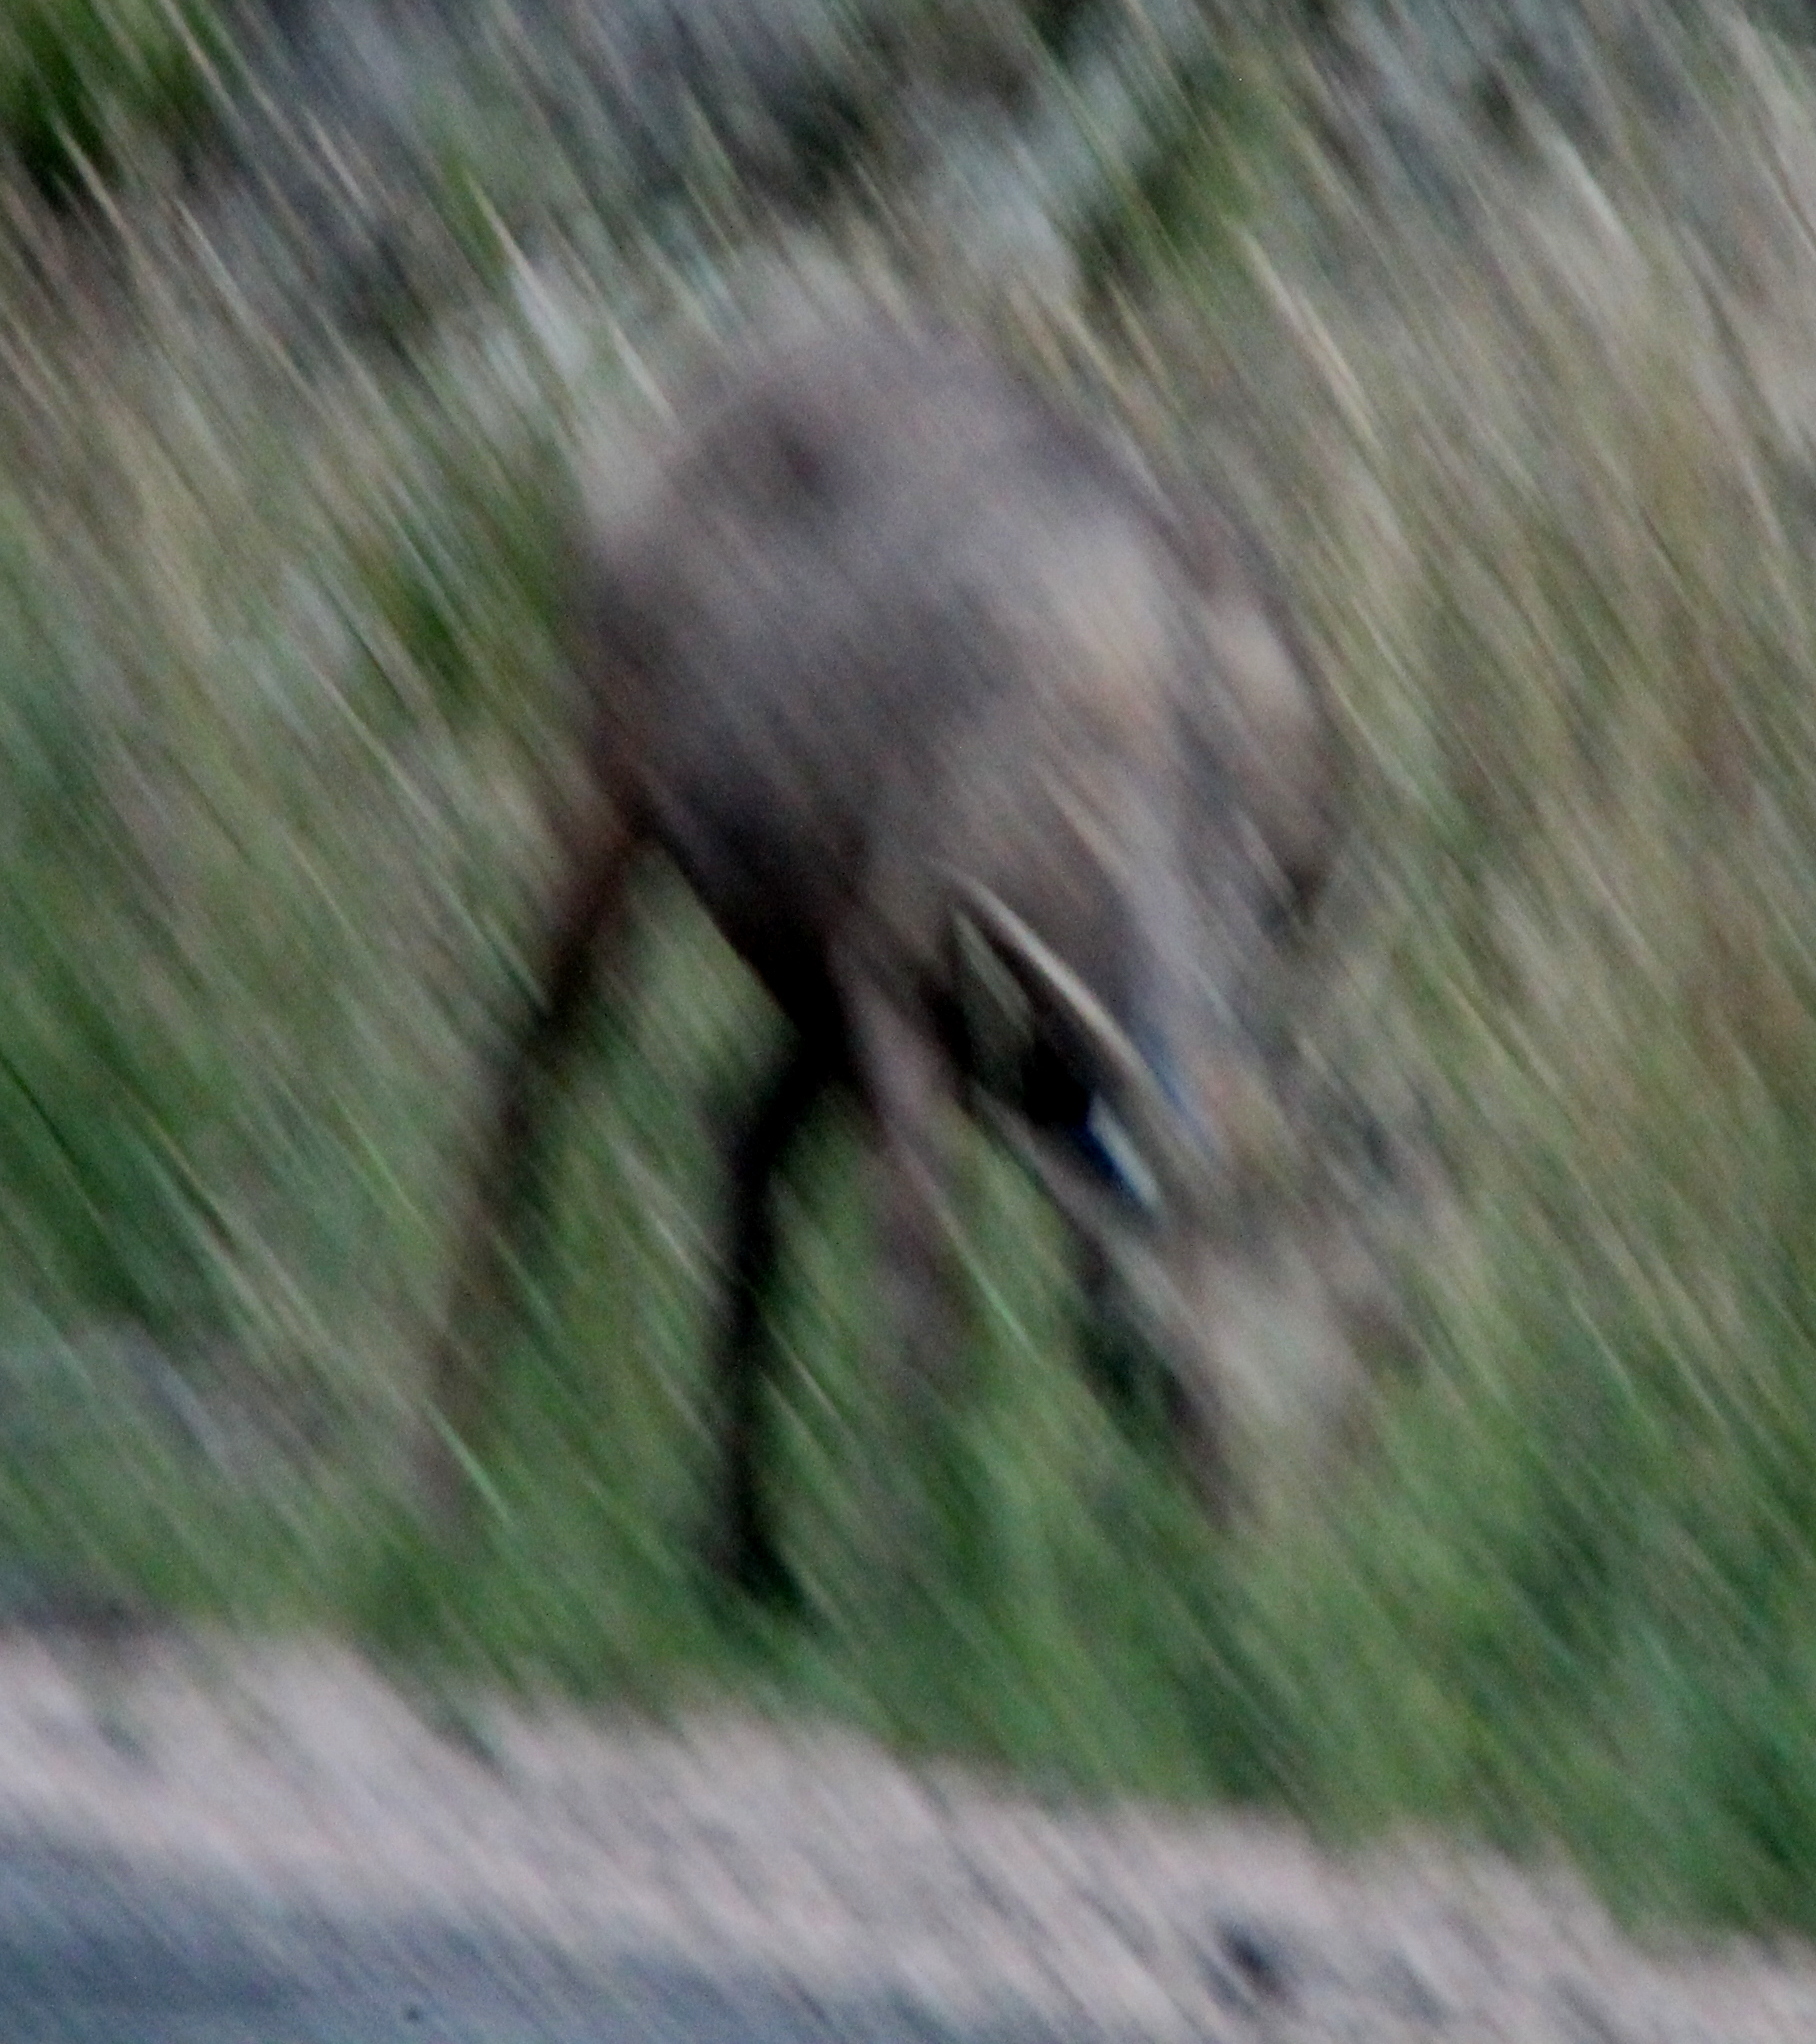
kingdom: Animalia
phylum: Chordata
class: Mammalia
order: Artiodactyla
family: Bovidae
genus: Ovis
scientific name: Ovis canadensis
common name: Bighorn sheep
